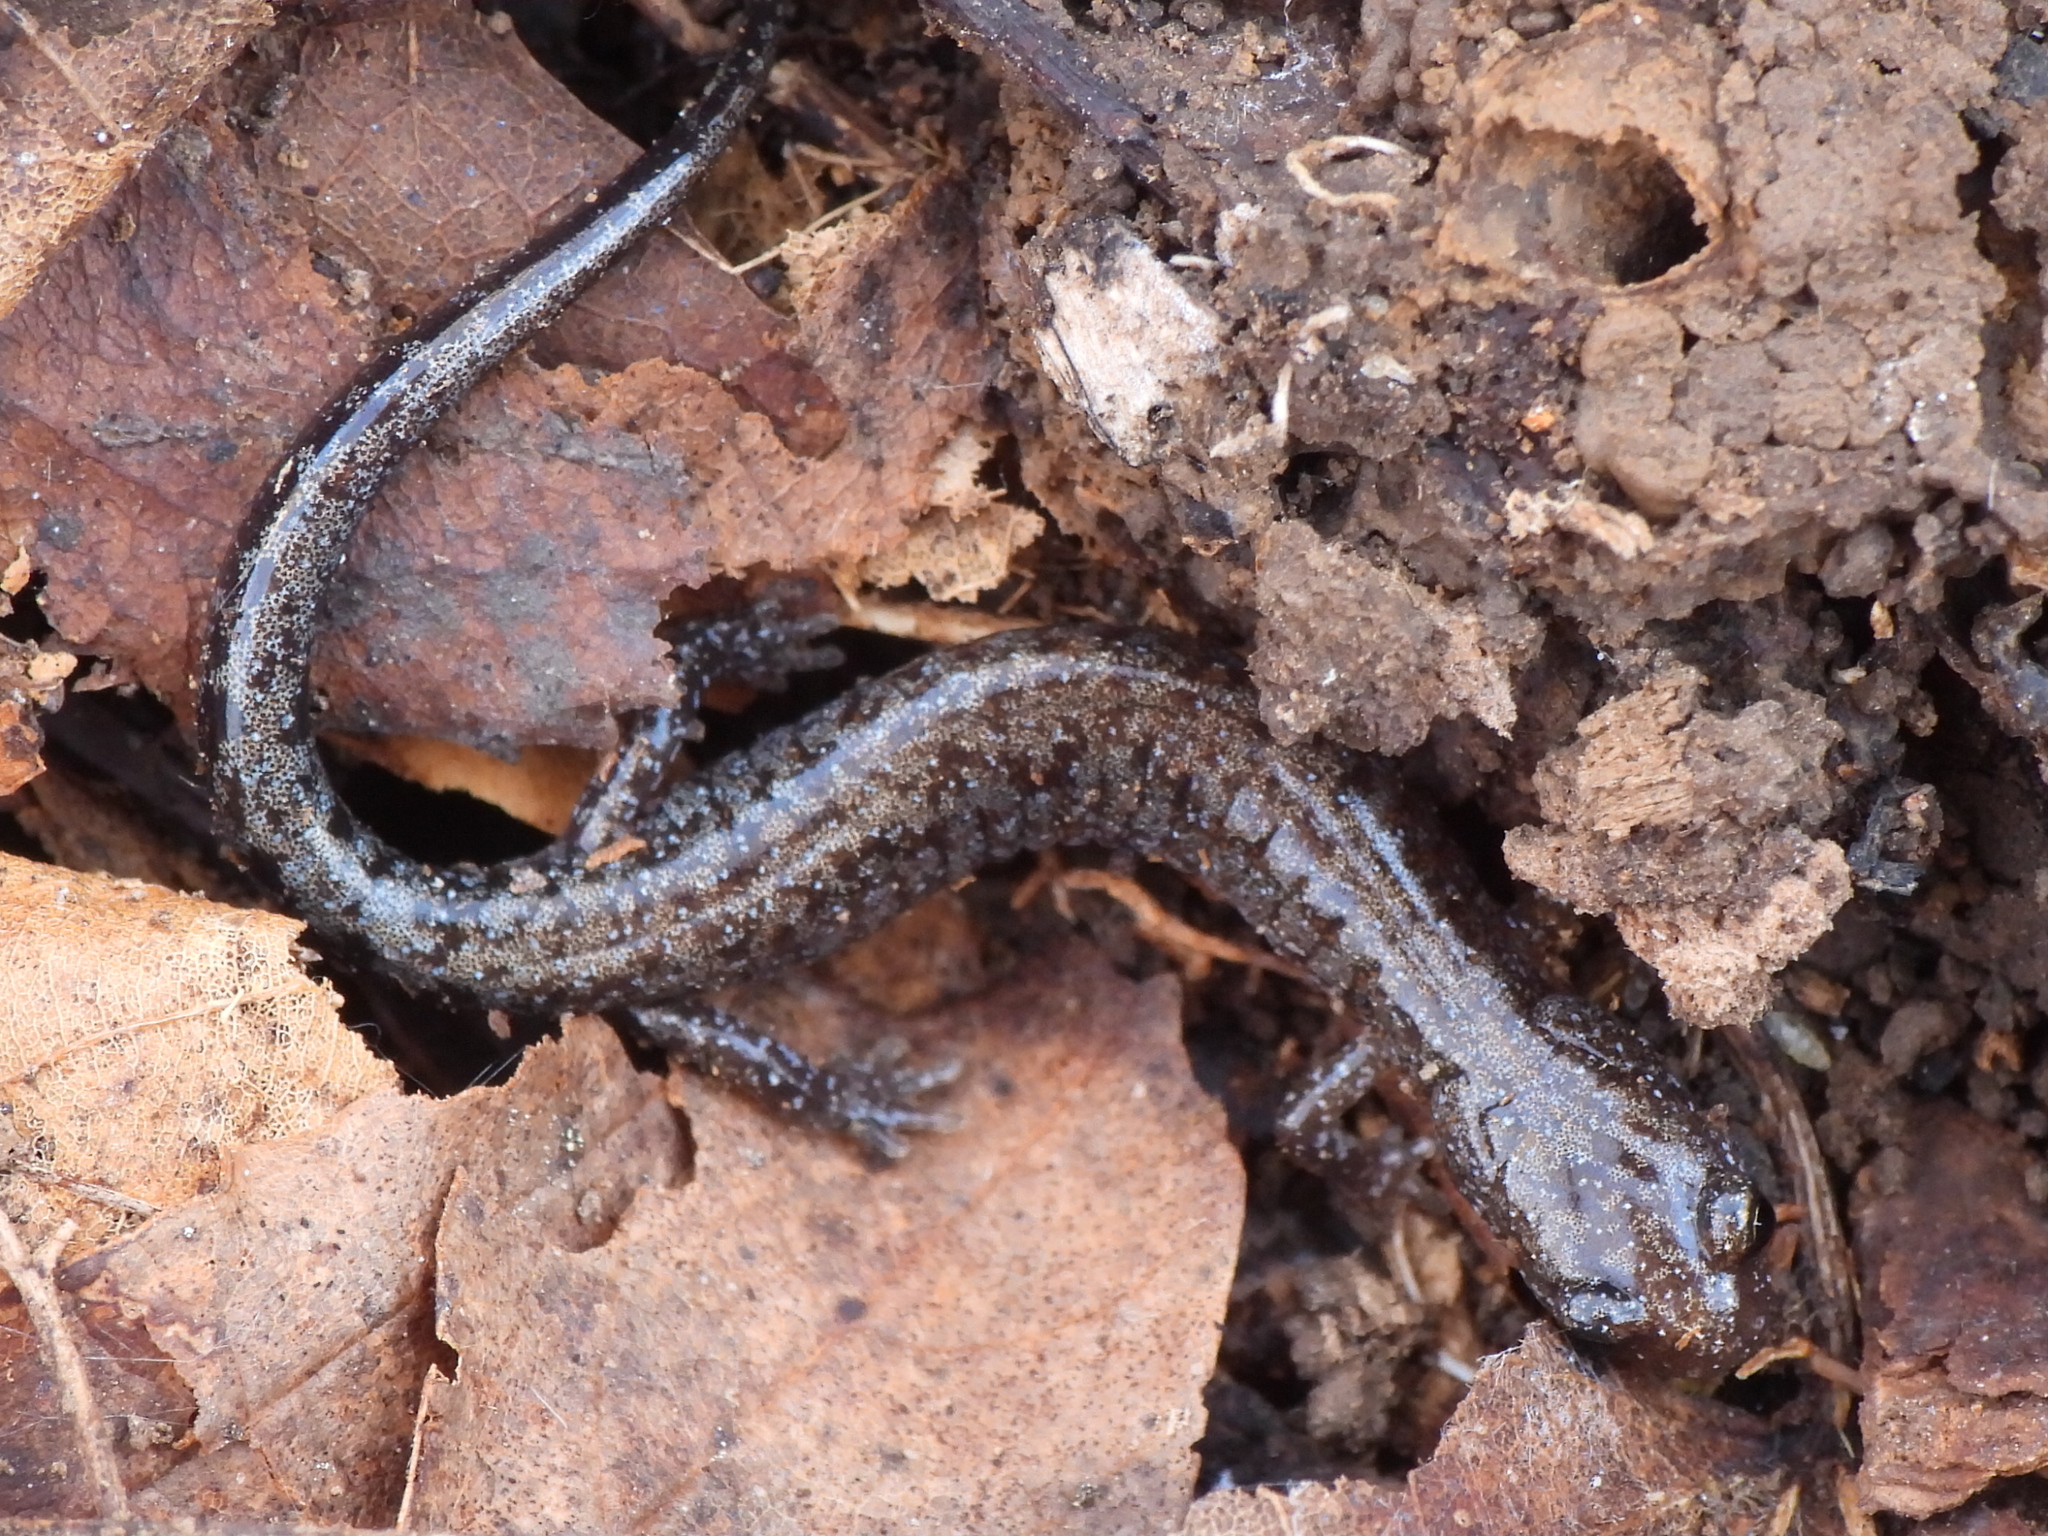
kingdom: Animalia
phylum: Chordata
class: Amphibia
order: Caudata
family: Plethodontidae
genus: Plethodon
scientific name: Plethodon dorsalis
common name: Northern zigzag salamander
